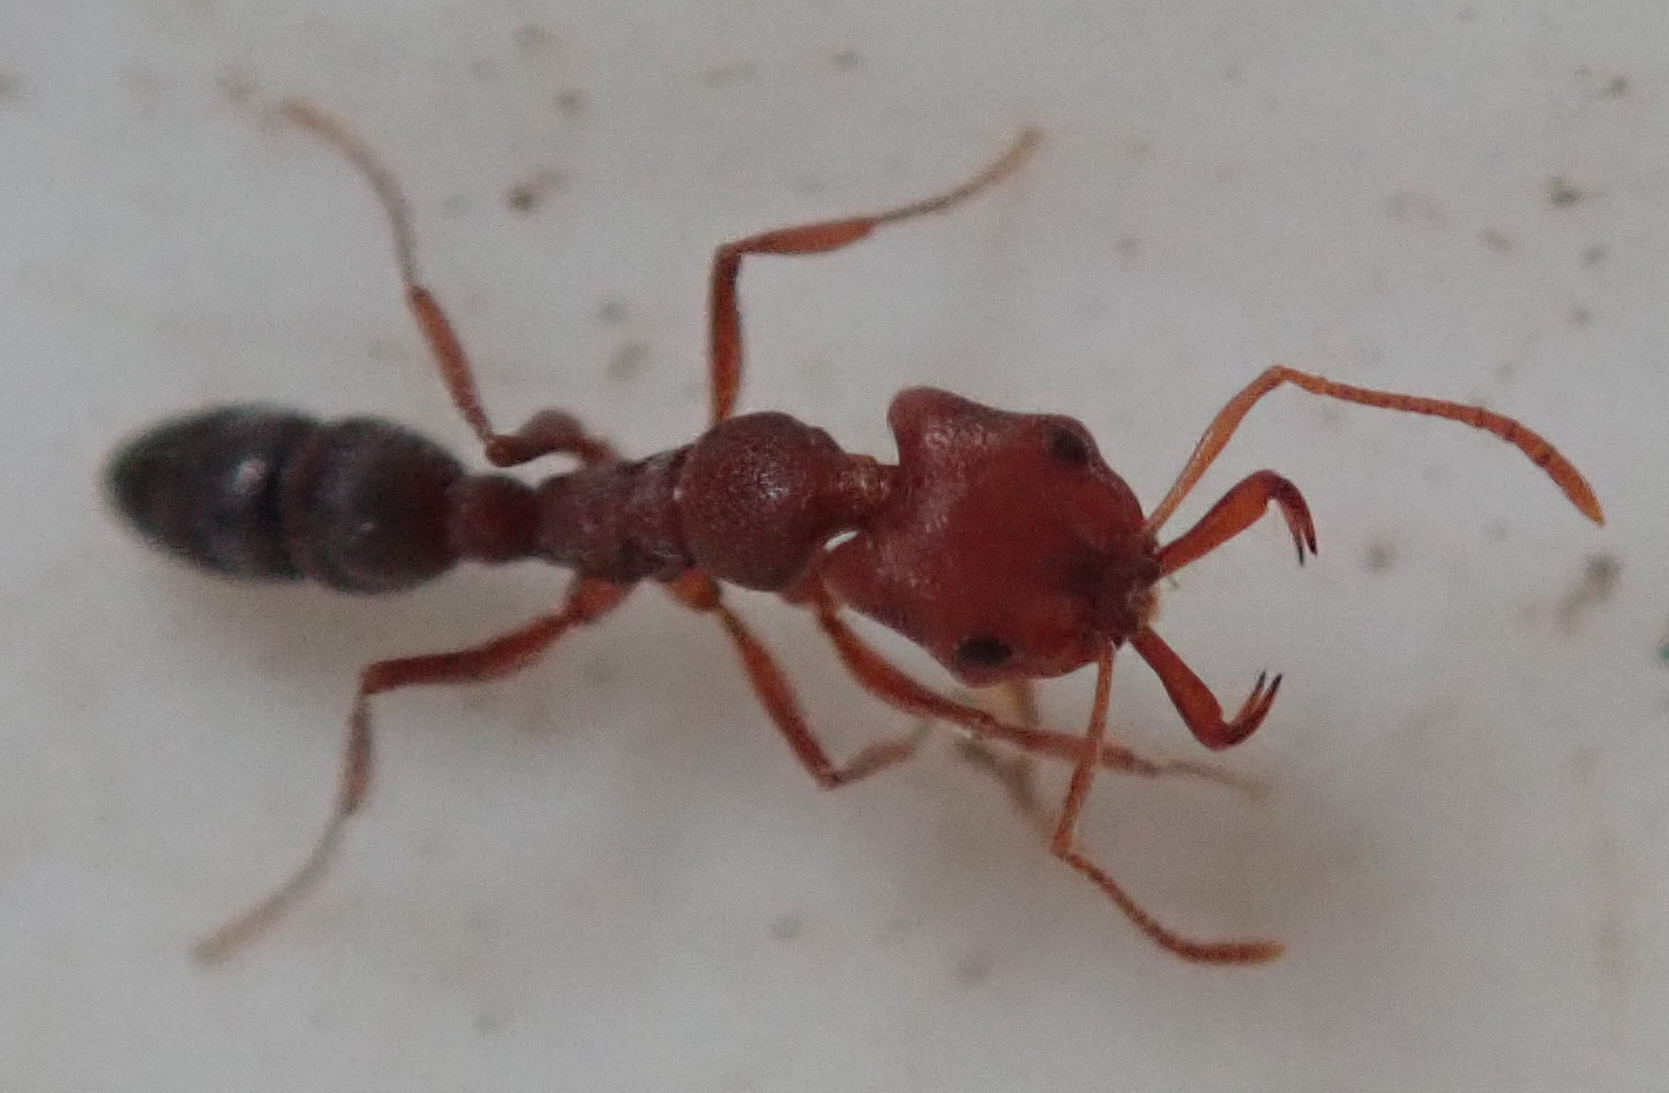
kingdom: Animalia
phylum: Arthropoda
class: Insecta
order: Hymenoptera
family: Formicidae
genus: Anochetus
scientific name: Anochetus levaillanti
